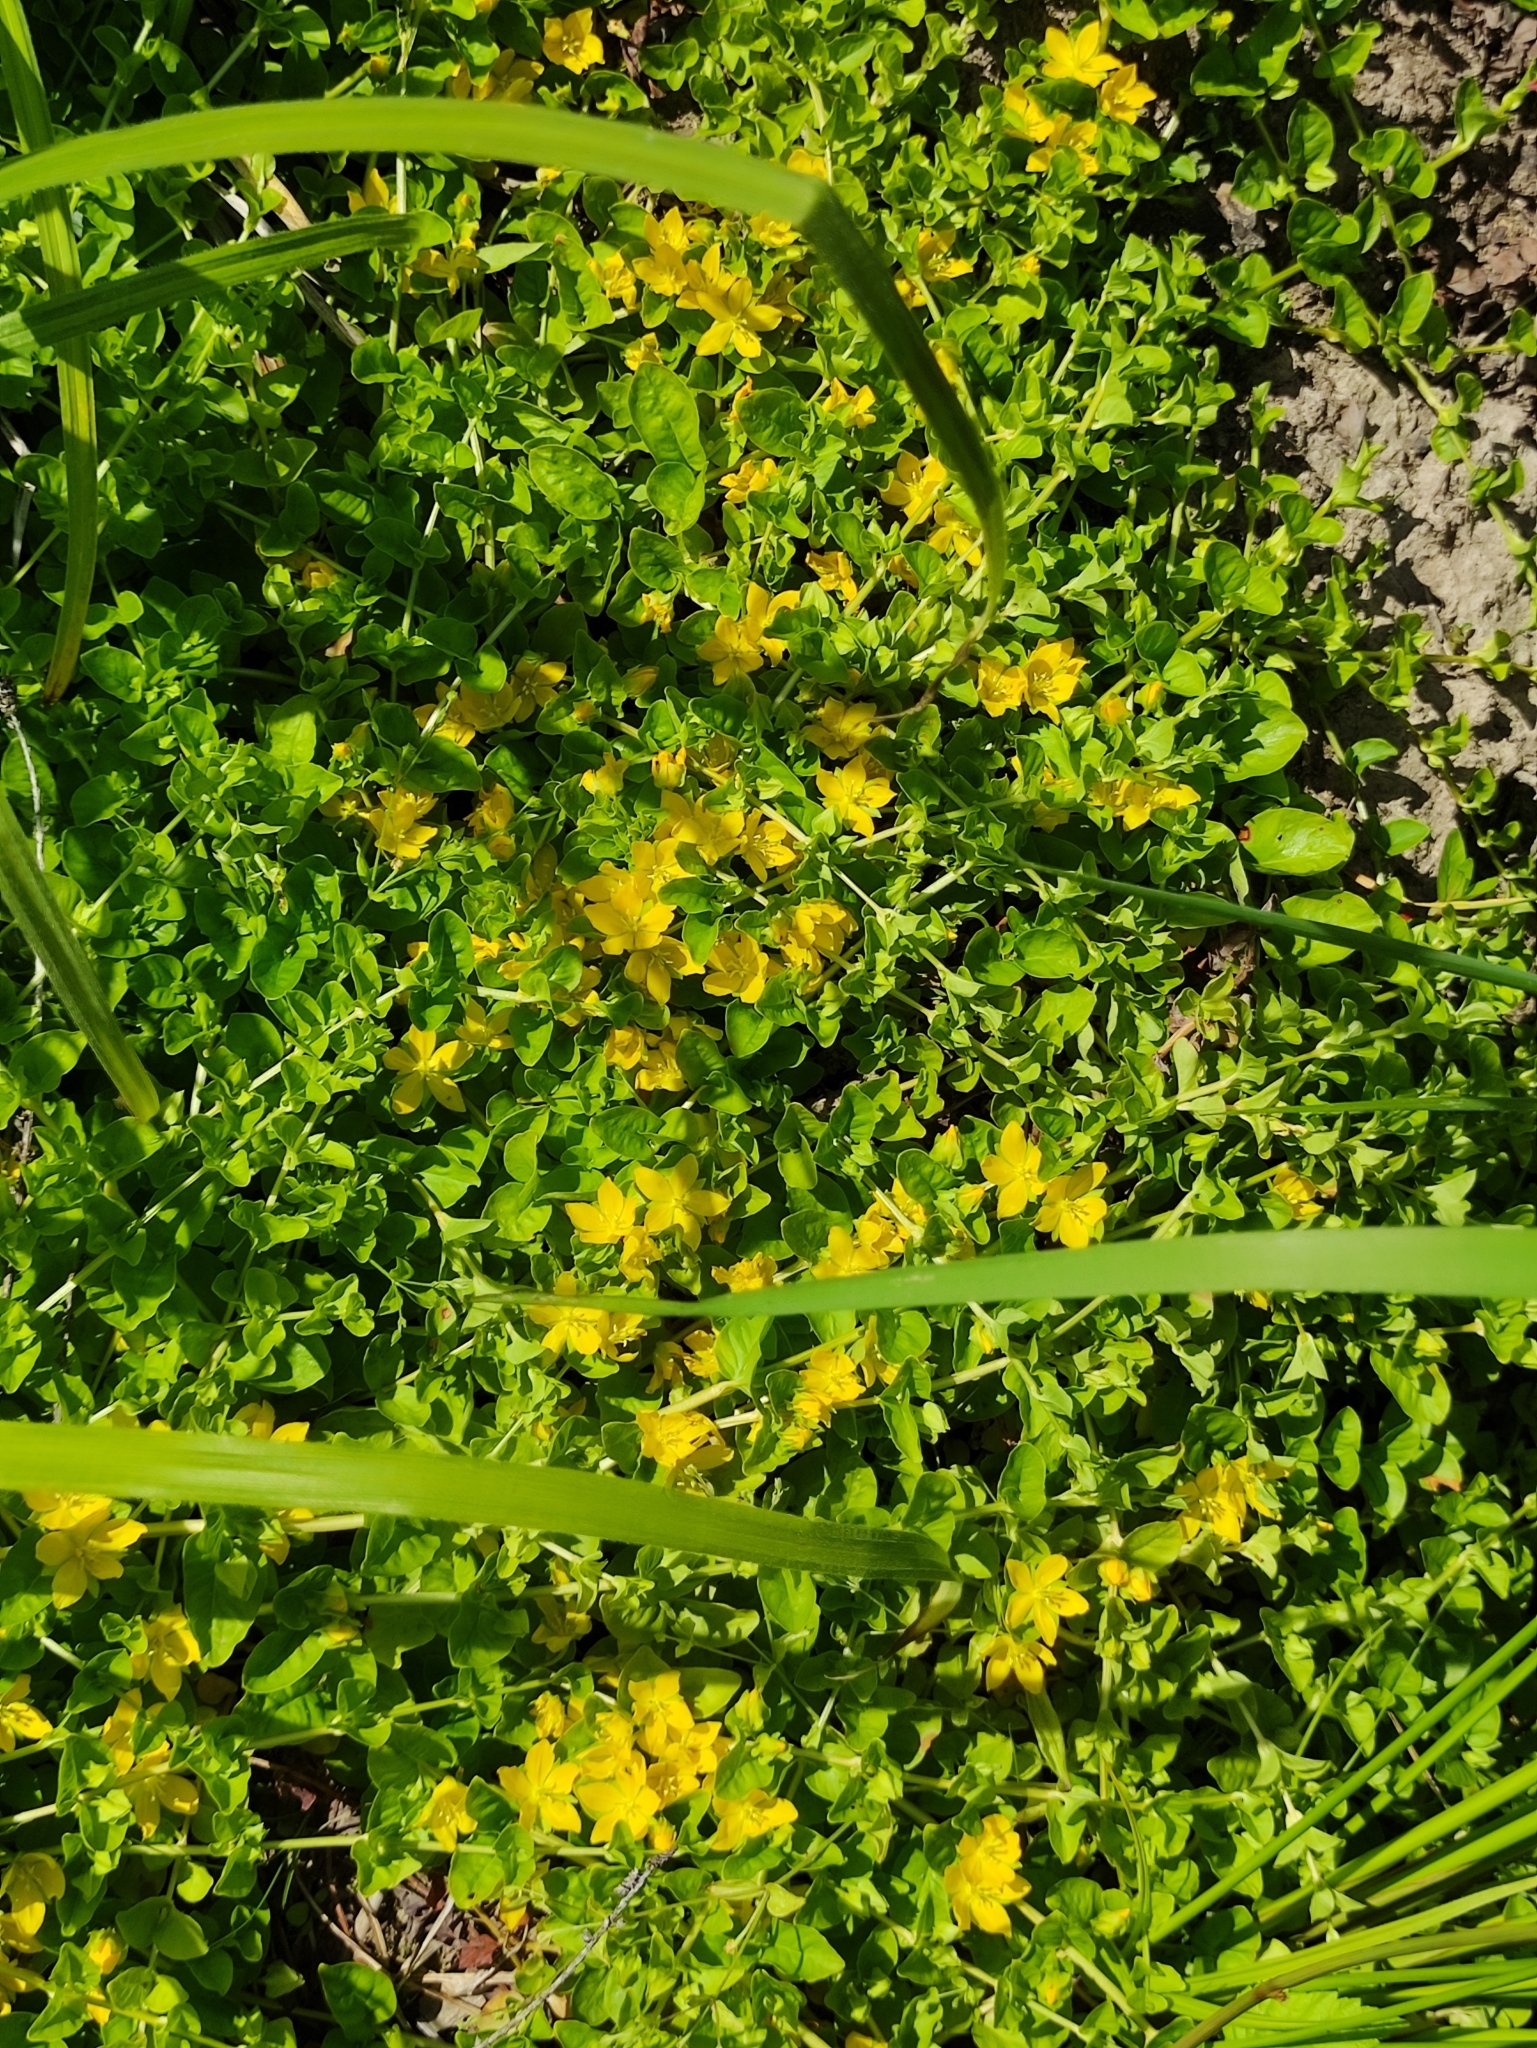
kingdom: Plantae
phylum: Tracheophyta
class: Magnoliopsida
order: Ericales
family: Primulaceae
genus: Lysimachia
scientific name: Lysimachia nummularia
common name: Moneywort
